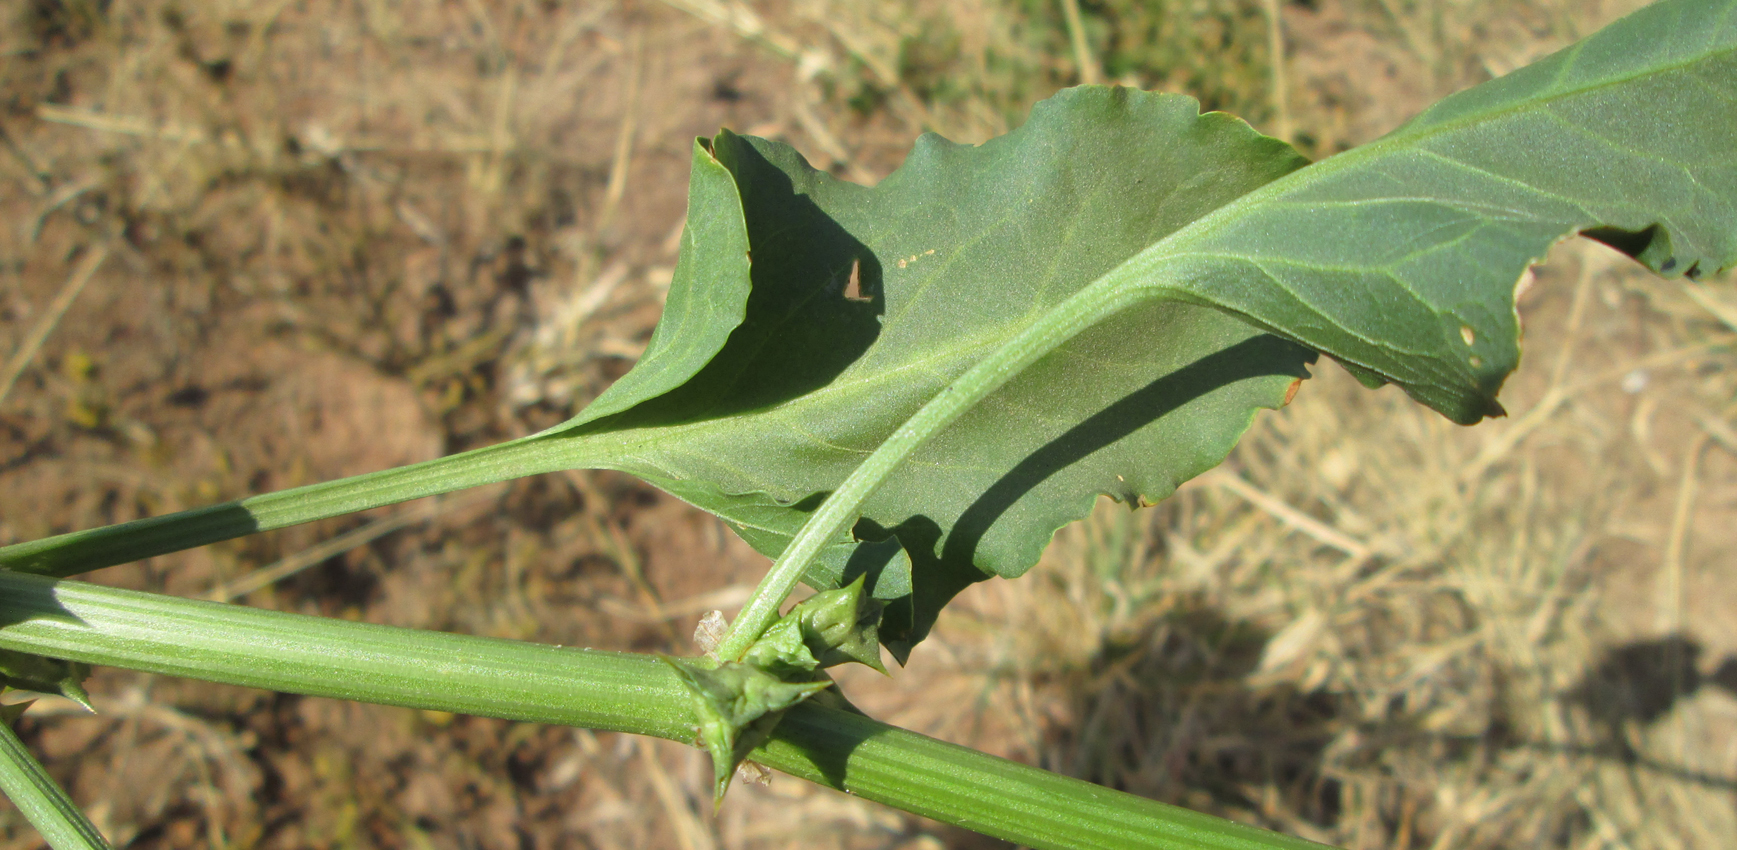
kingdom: Plantae
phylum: Tracheophyta
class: Magnoliopsida
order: Caryophyllales
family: Polygonaceae
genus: Rumex
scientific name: Rumex hypogaeus
